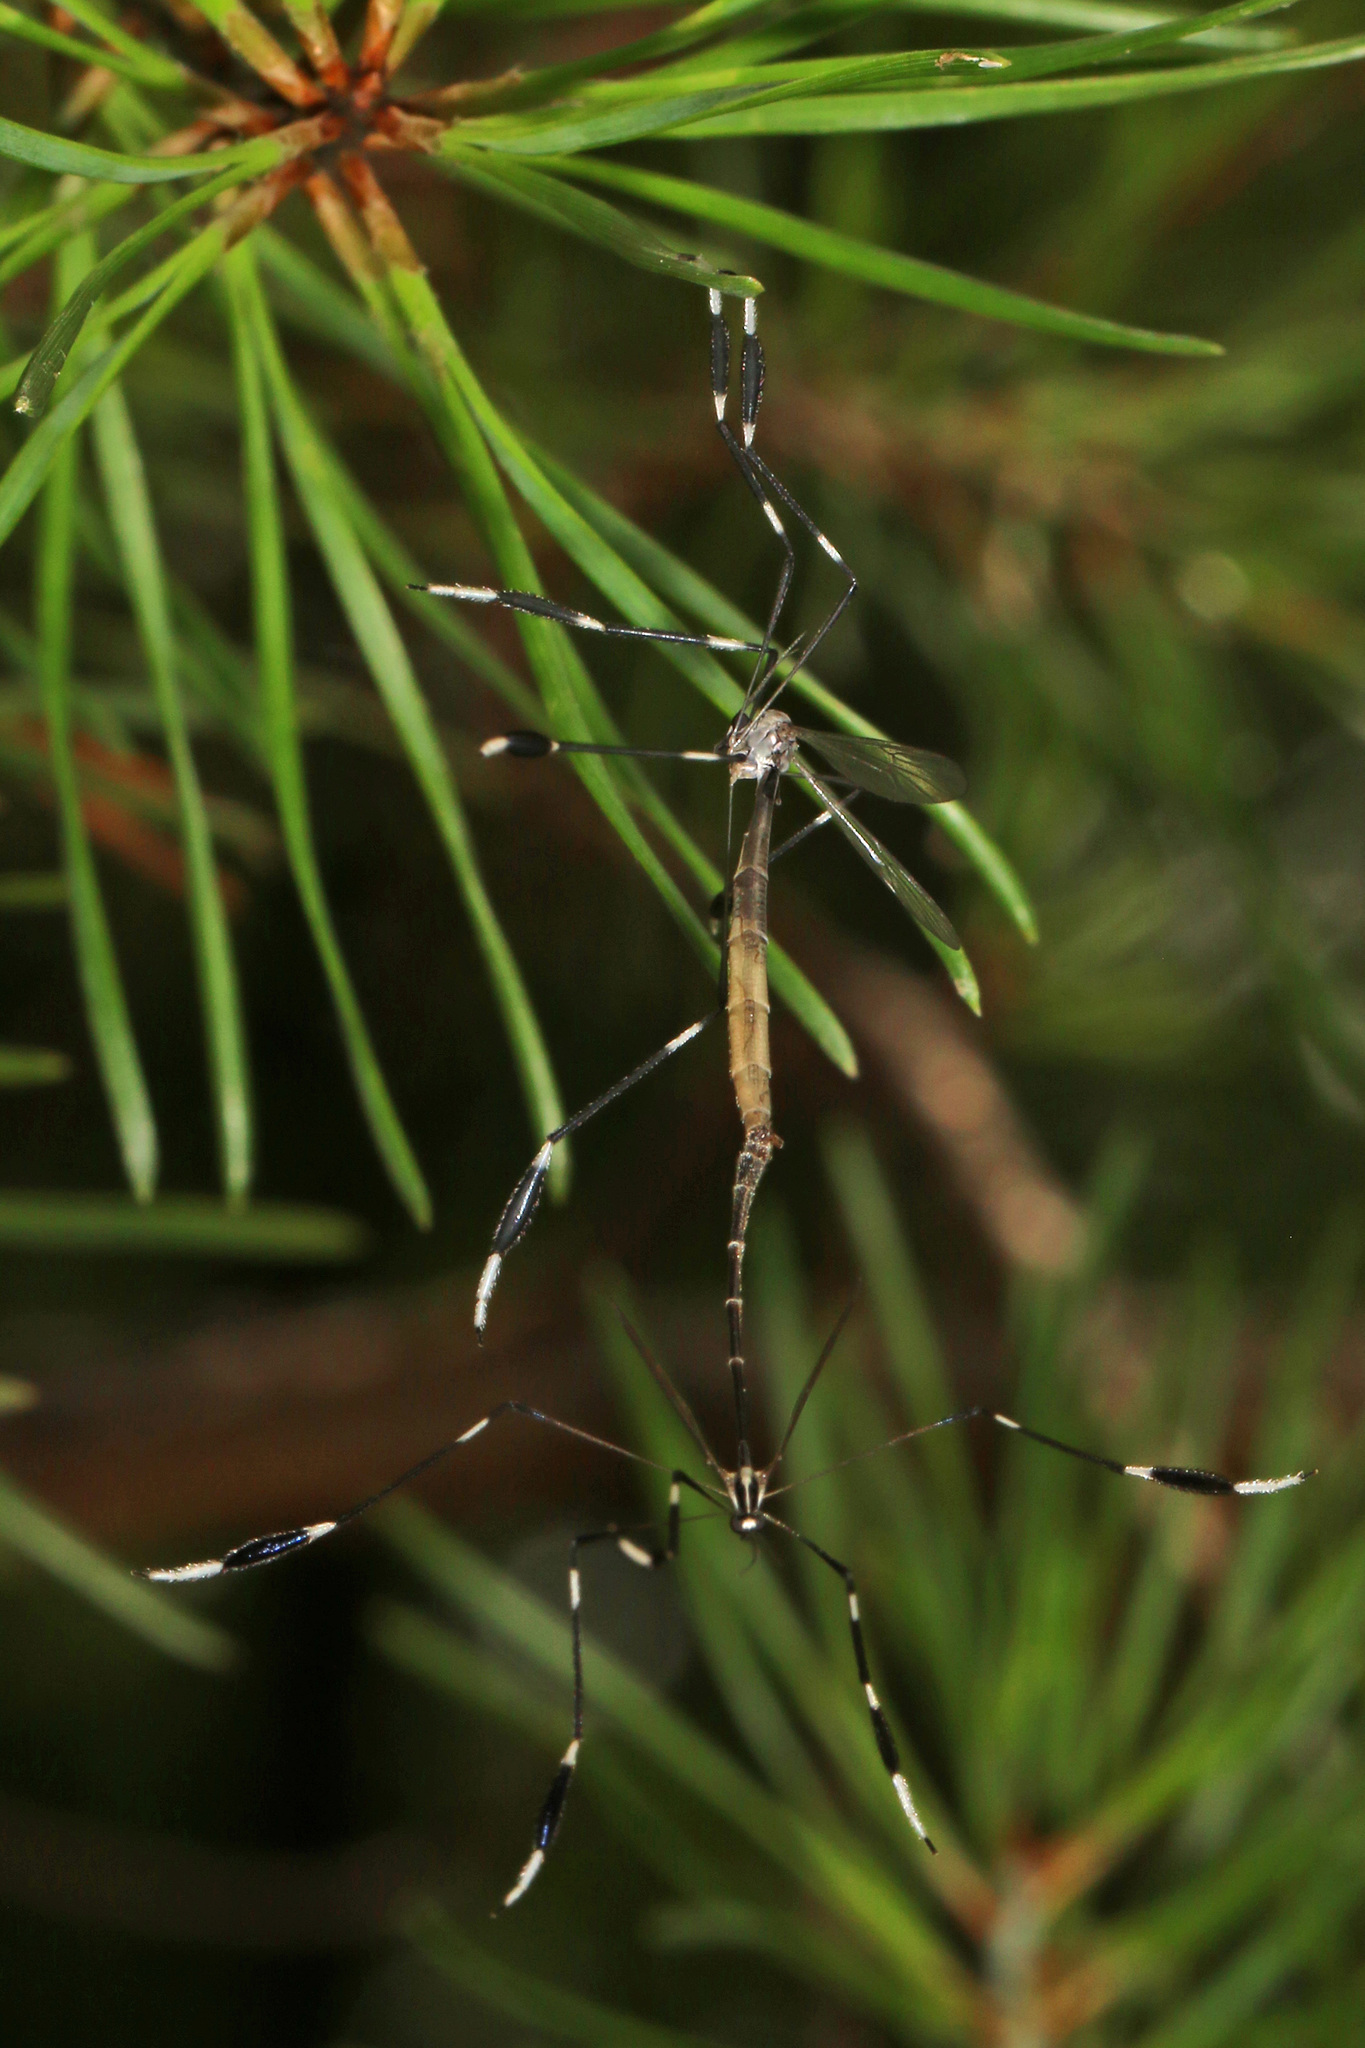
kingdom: Animalia
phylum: Arthropoda
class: Insecta
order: Diptera
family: Ptychopteridae
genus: Bittacomorpha
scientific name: Bittacomorpha clavipes
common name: Eastern phantom crane fly
